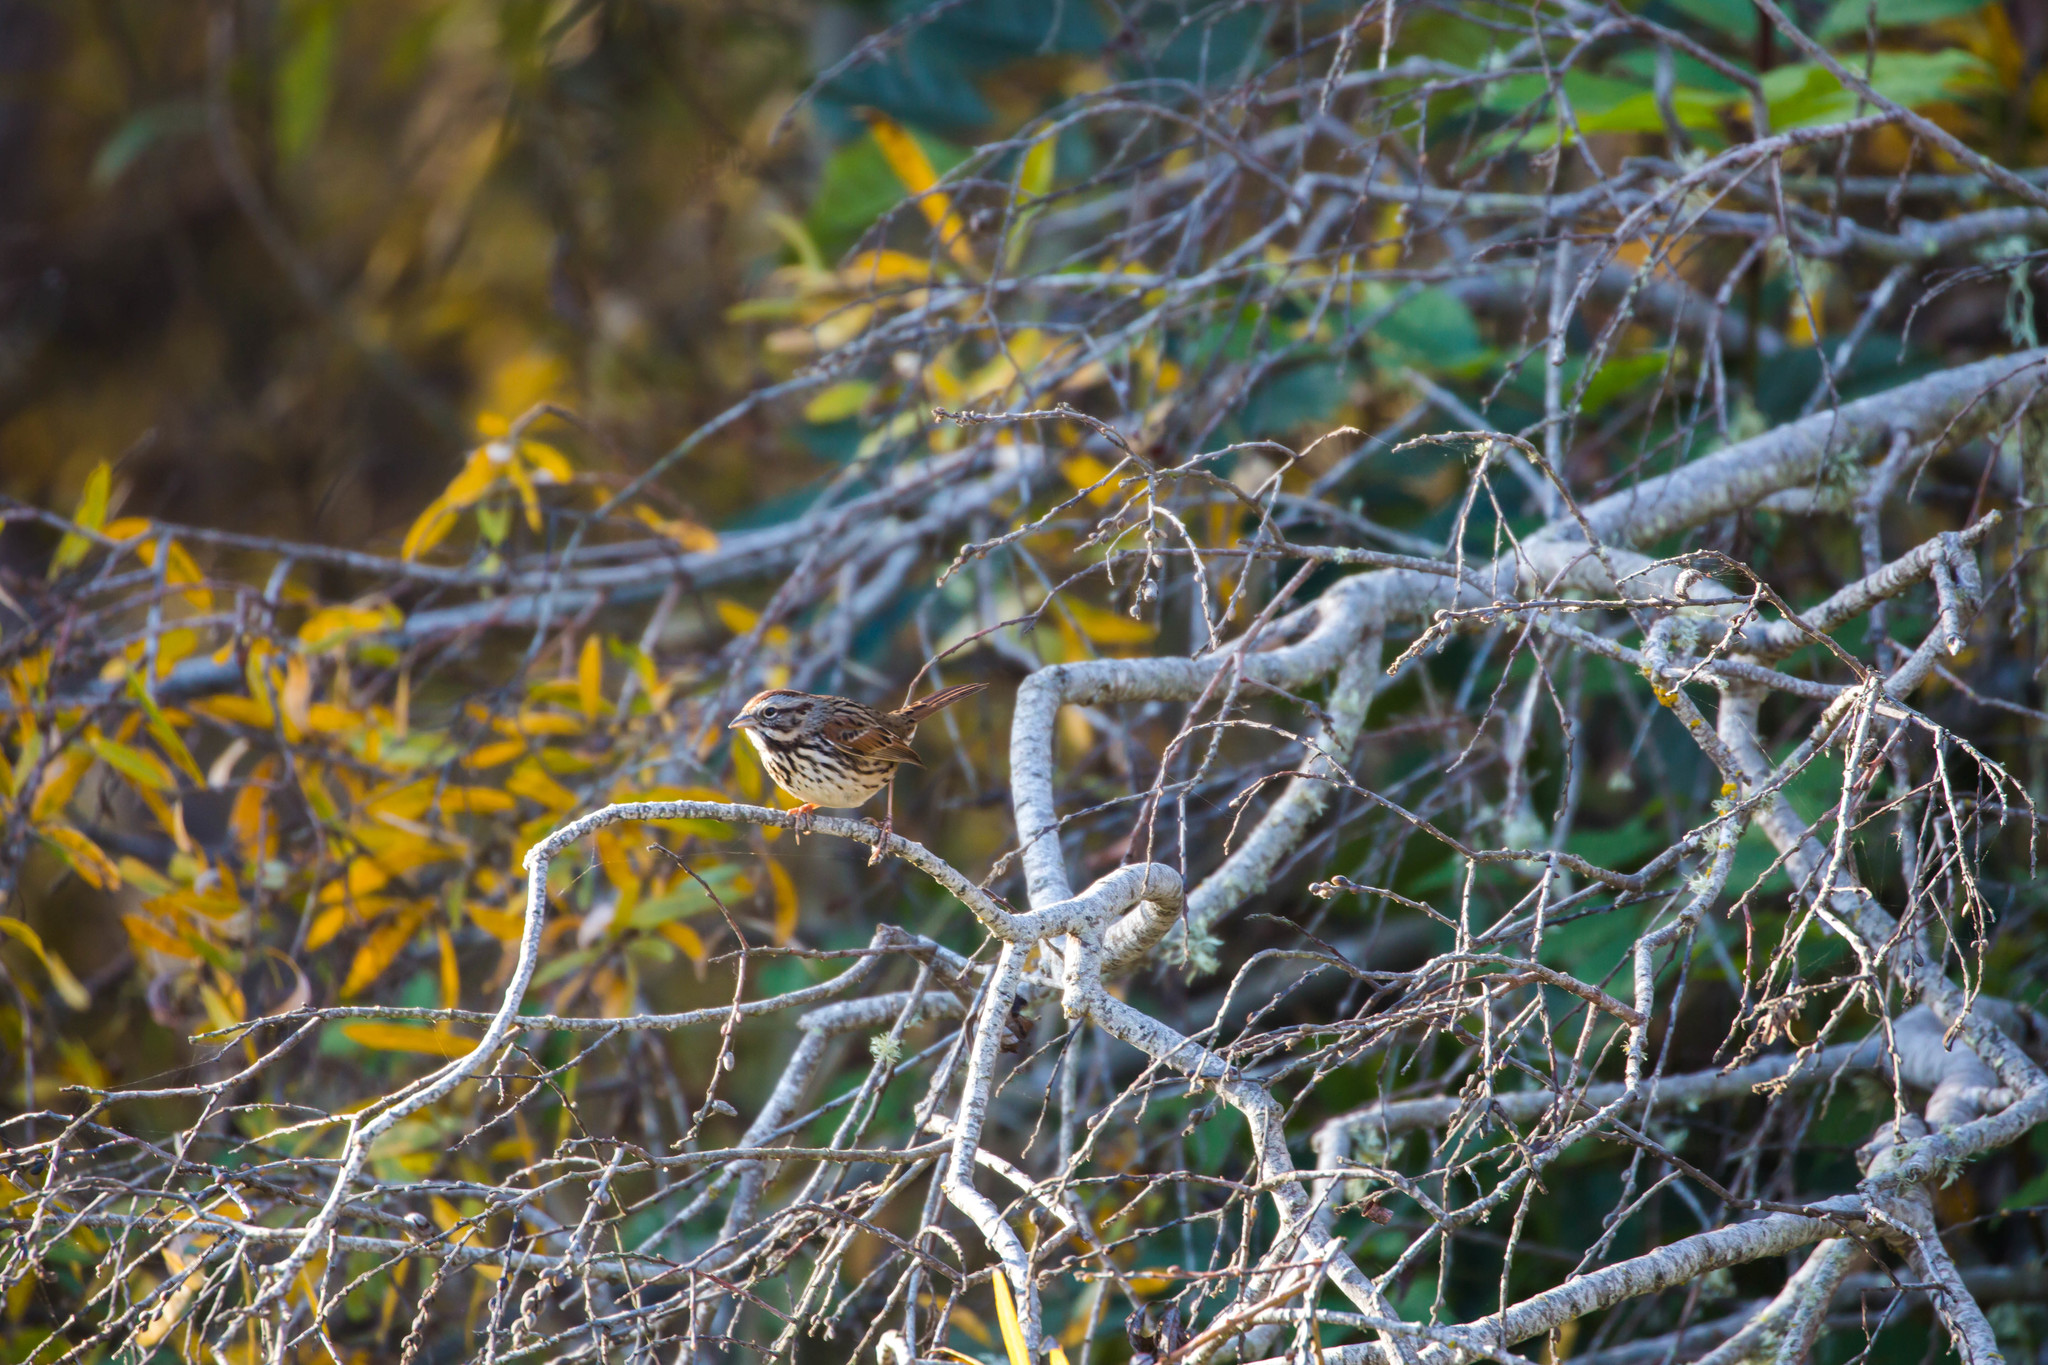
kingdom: Animalia
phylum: Chordata
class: Aves
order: Passeriformes
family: Passerellidae
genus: Melospiza
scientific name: Melospiza melodia
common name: Song sparrow
